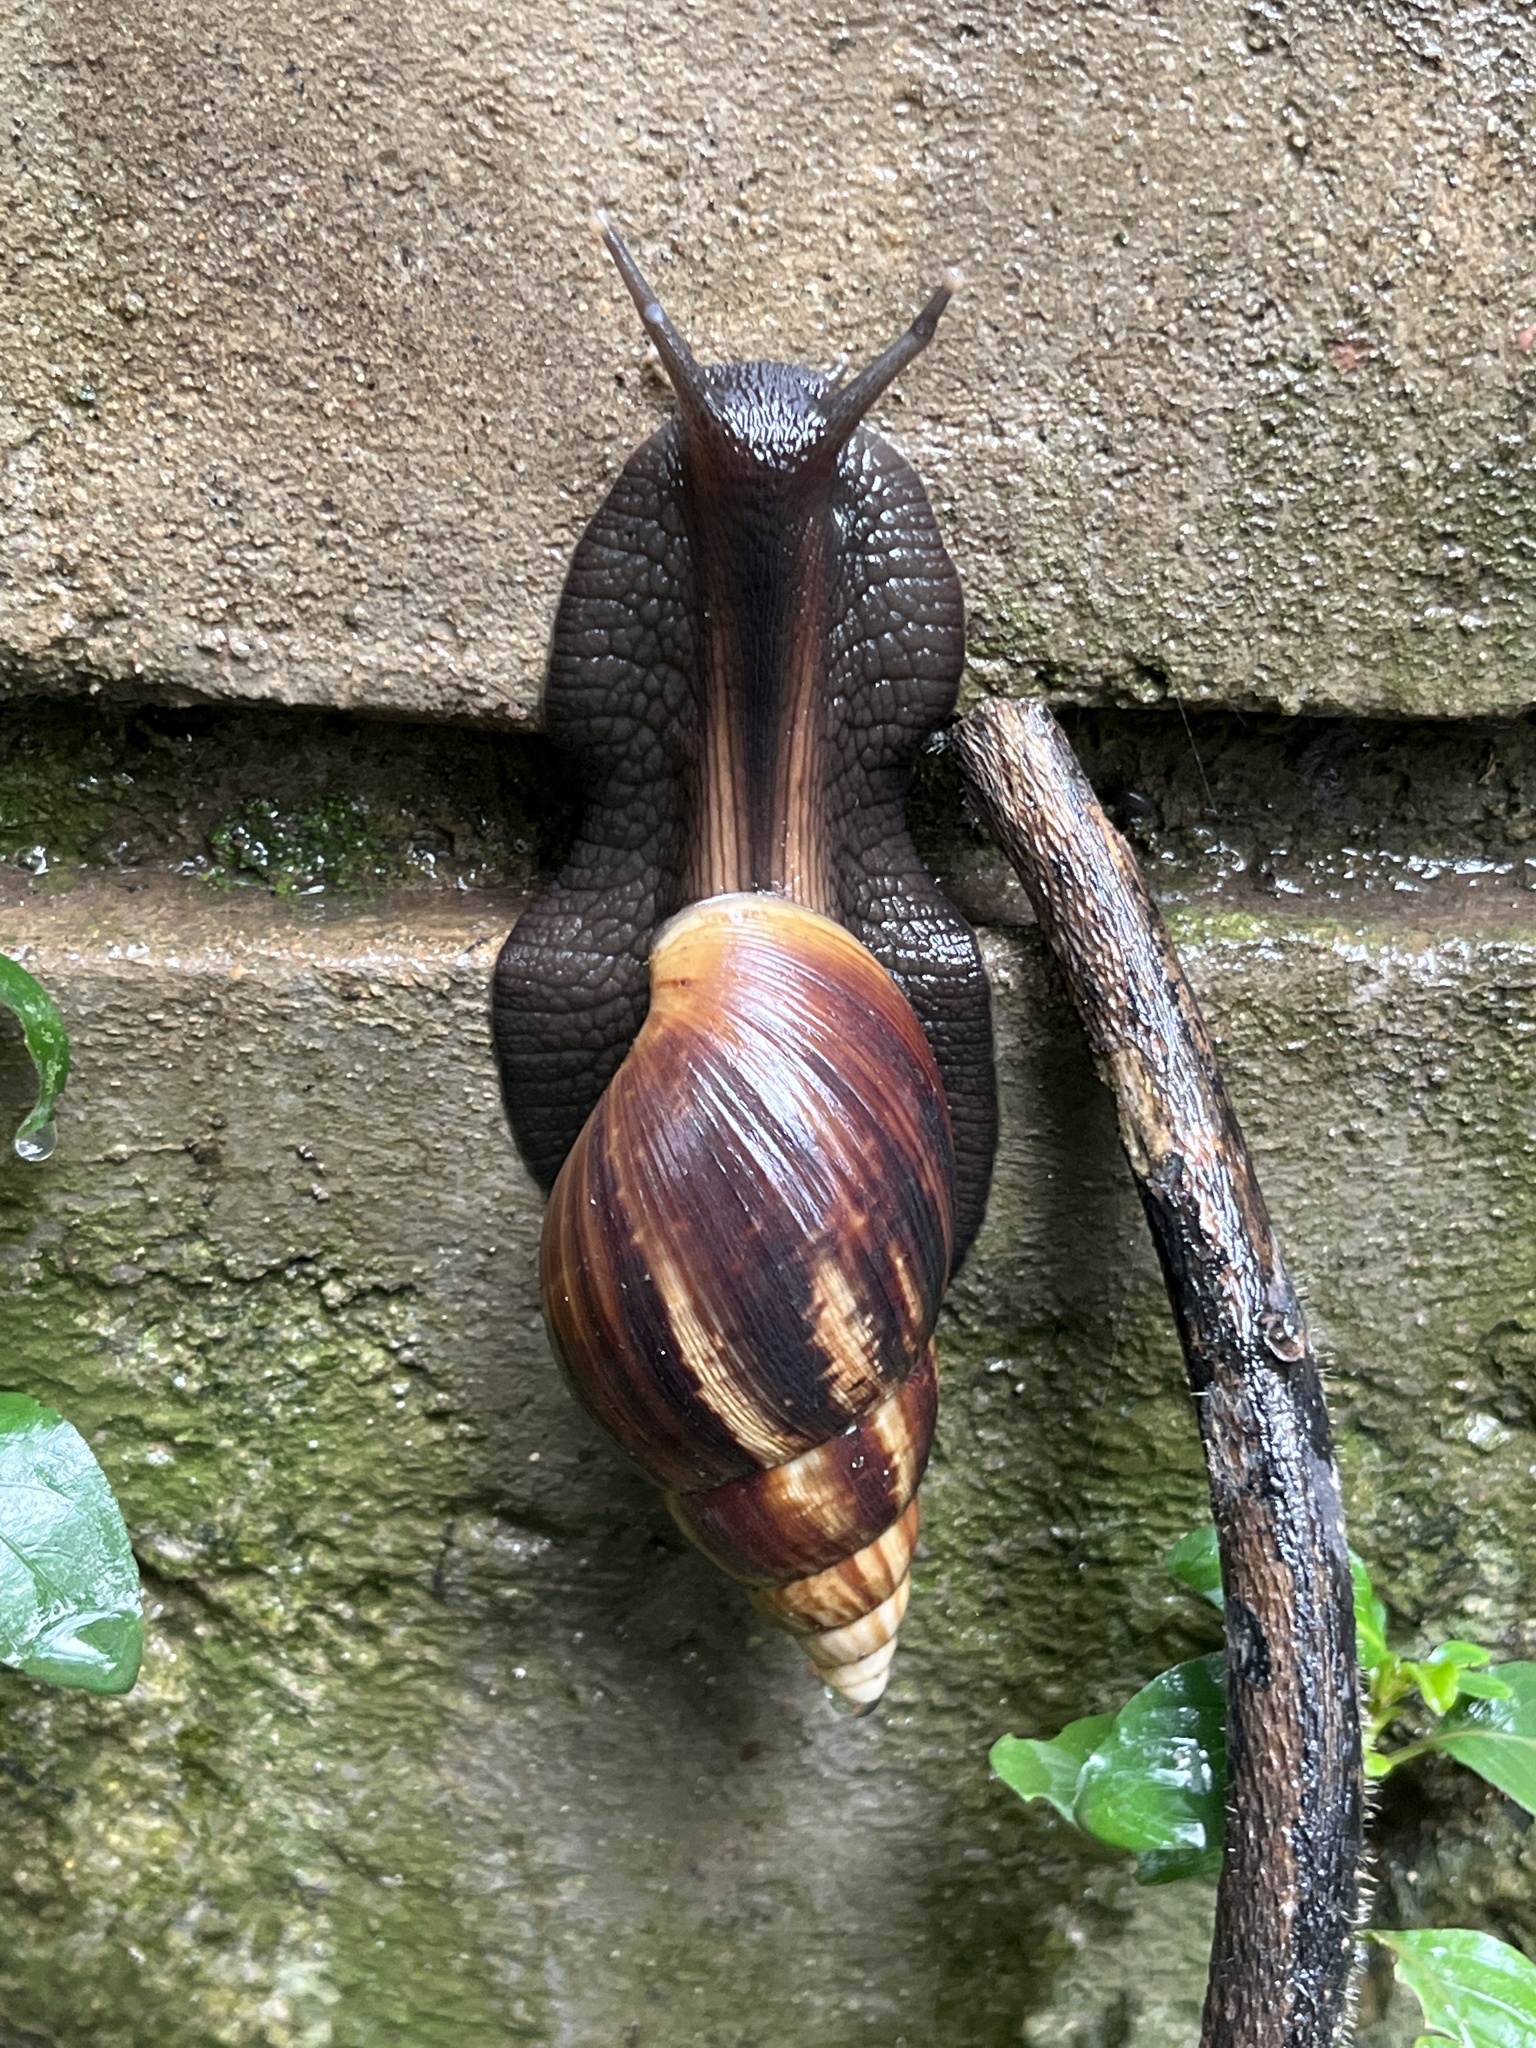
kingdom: Animalia
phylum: Mollusca
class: Gastropoda
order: Stylommatophora
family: Achatinidae
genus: Lissachatina
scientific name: Lissachatina fulica
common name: Giant african snail
